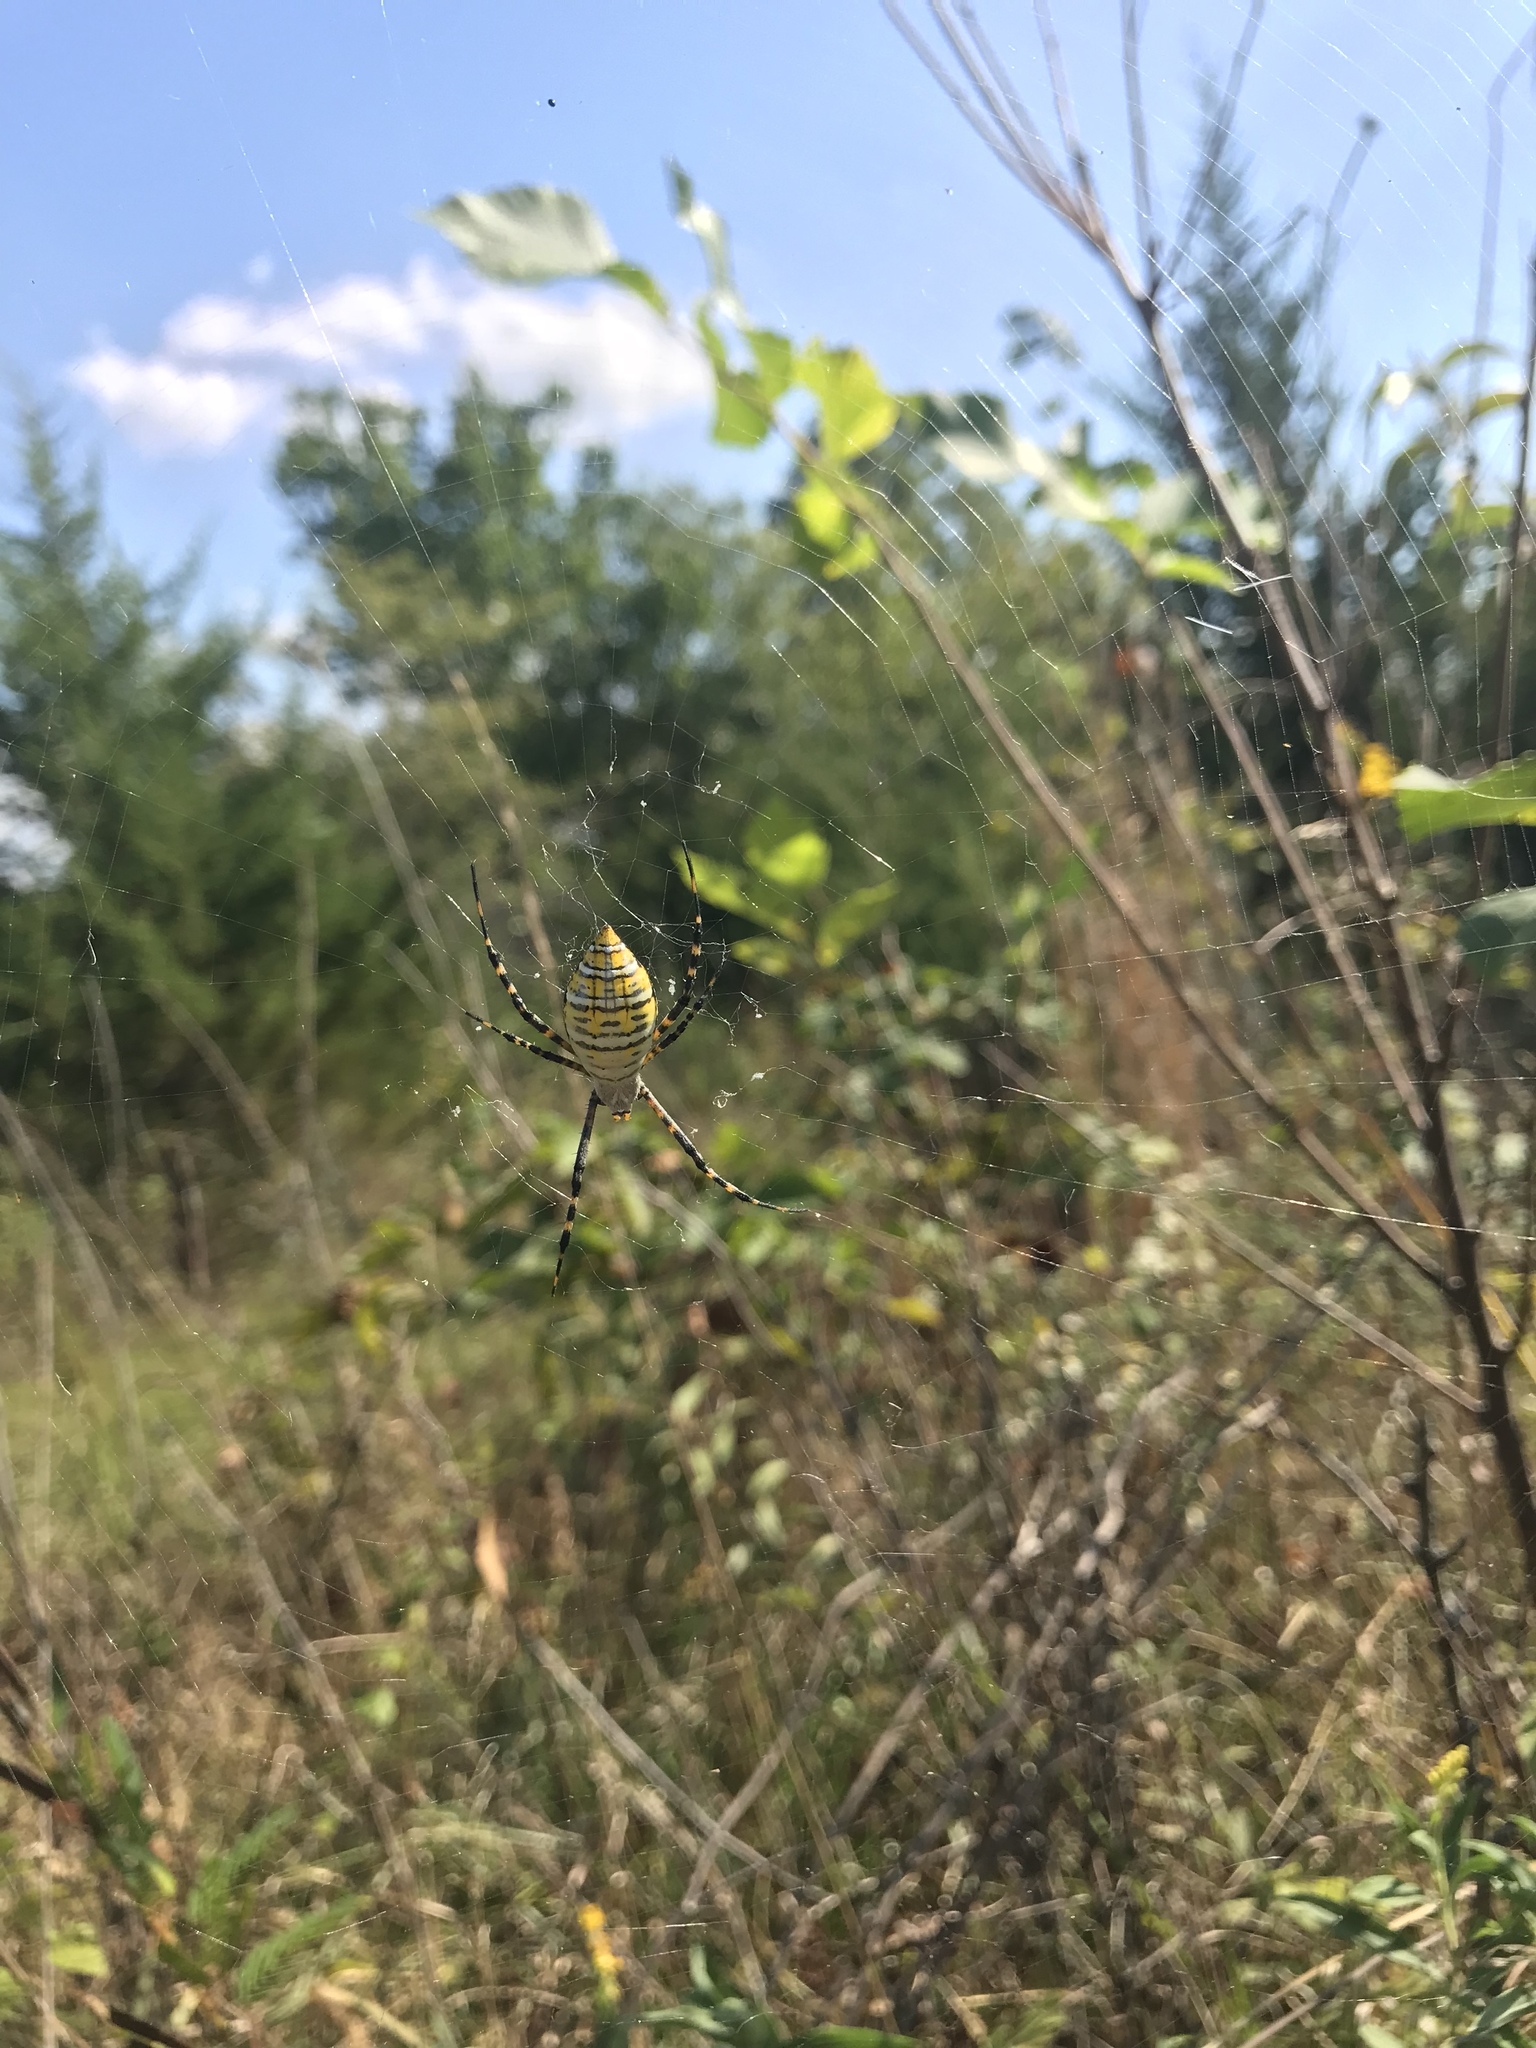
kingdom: Animalia
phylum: Arthropoda
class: Arachnida
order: Araneae
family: Araneidae
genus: Argiope
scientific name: Argiope trifasciata
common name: Banded garden spider
